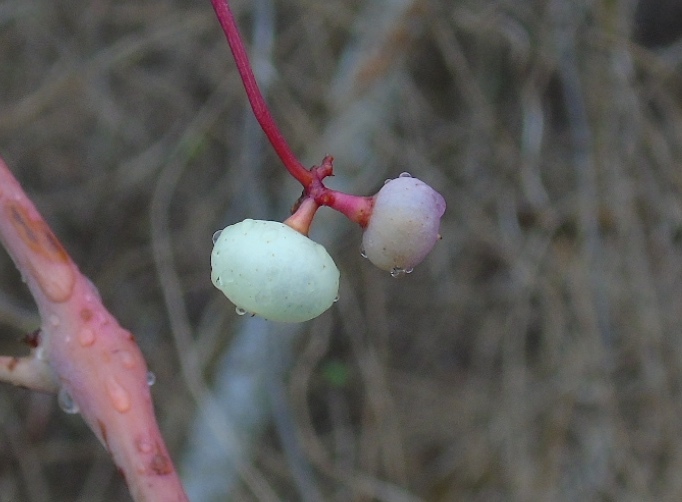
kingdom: Plantae
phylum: Tracheophyta
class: Magnoliopsida
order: Vitales
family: Vitaceae
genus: Ampelopsis
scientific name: Ampelopsis denudata
